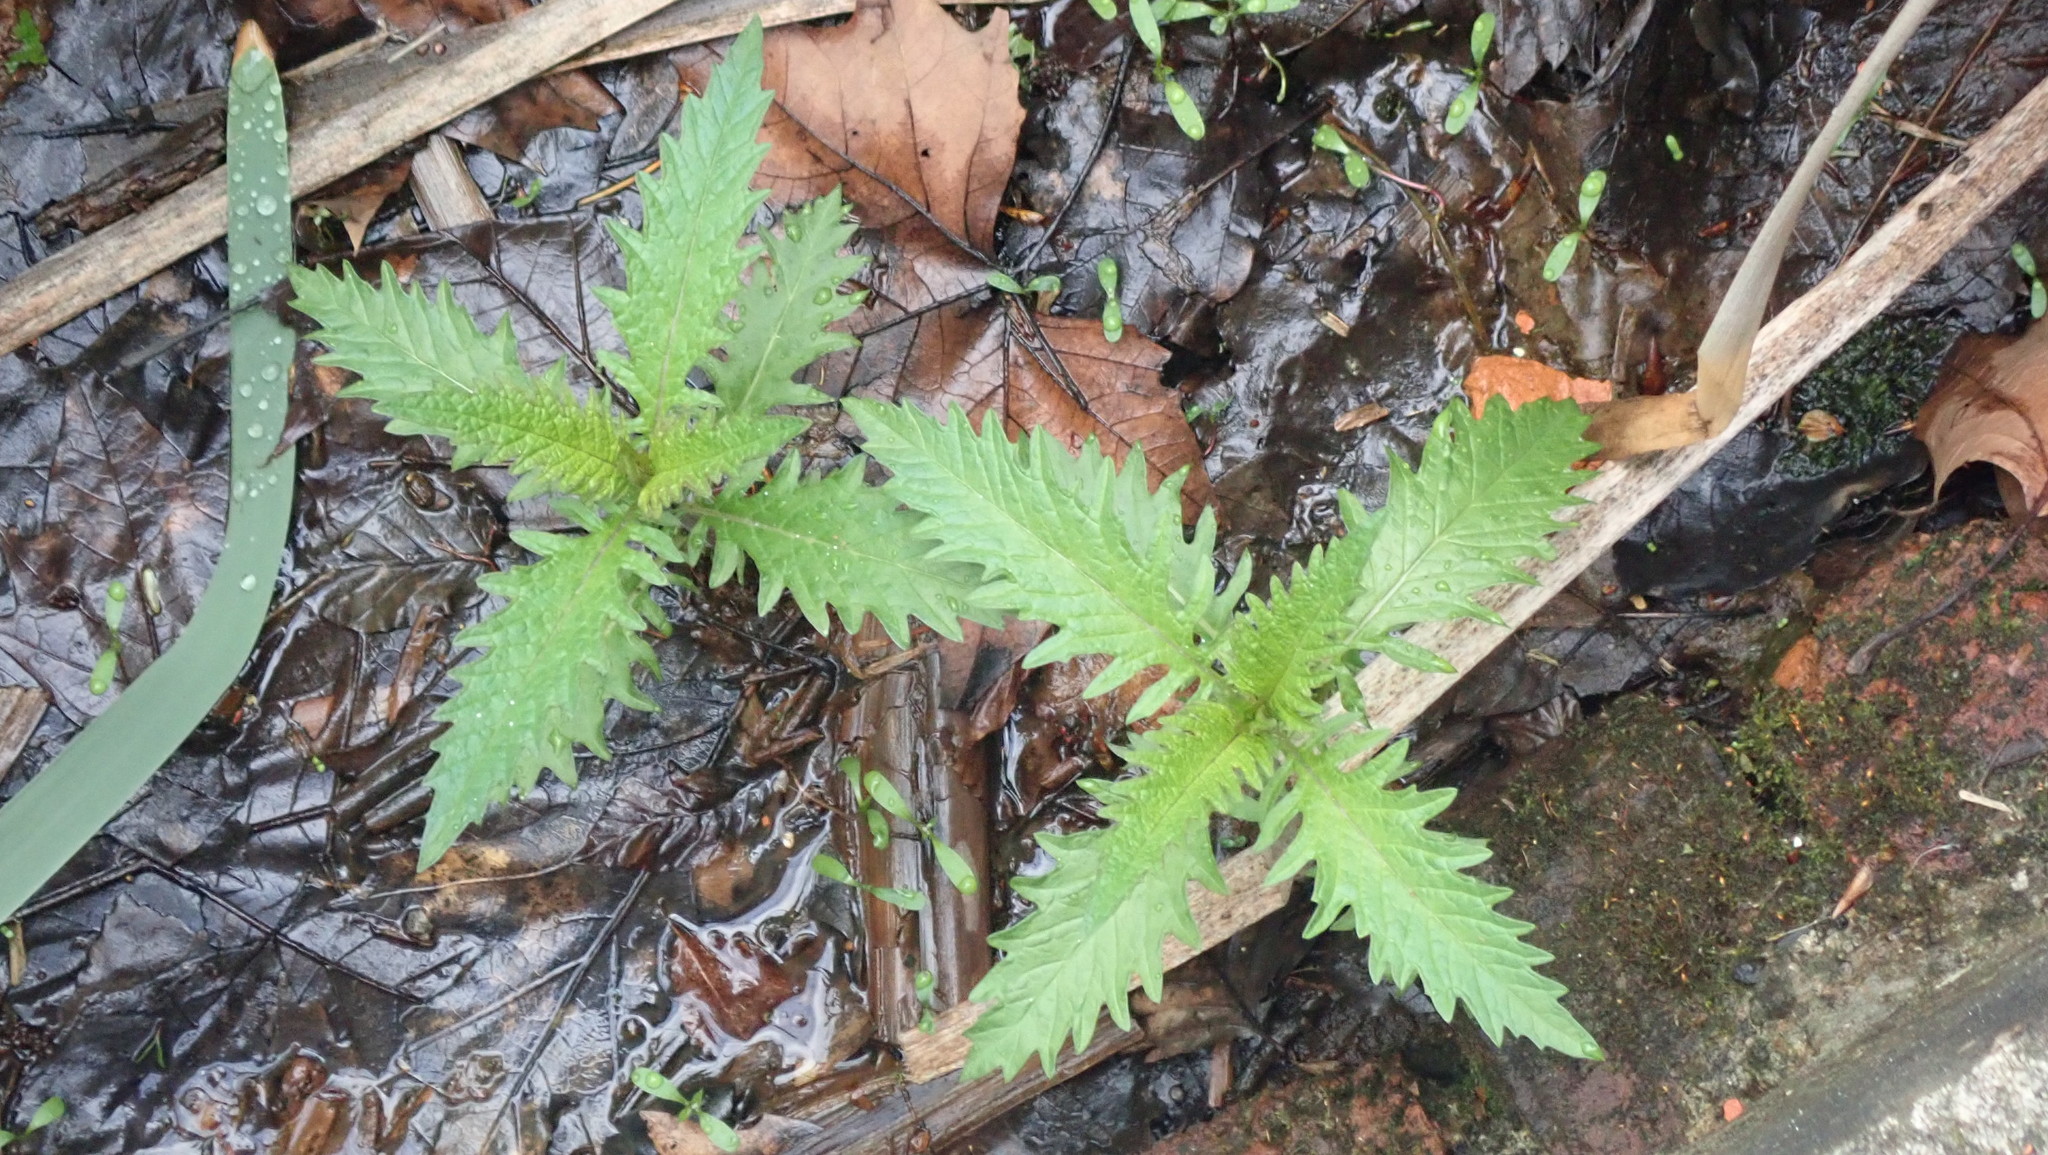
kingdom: Plantae
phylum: Tracheophyta
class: Magnoliopsida
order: Lamiales
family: Lamiaceae
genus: Lycopus
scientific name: Lycopus europaeus
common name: European bugleweed
